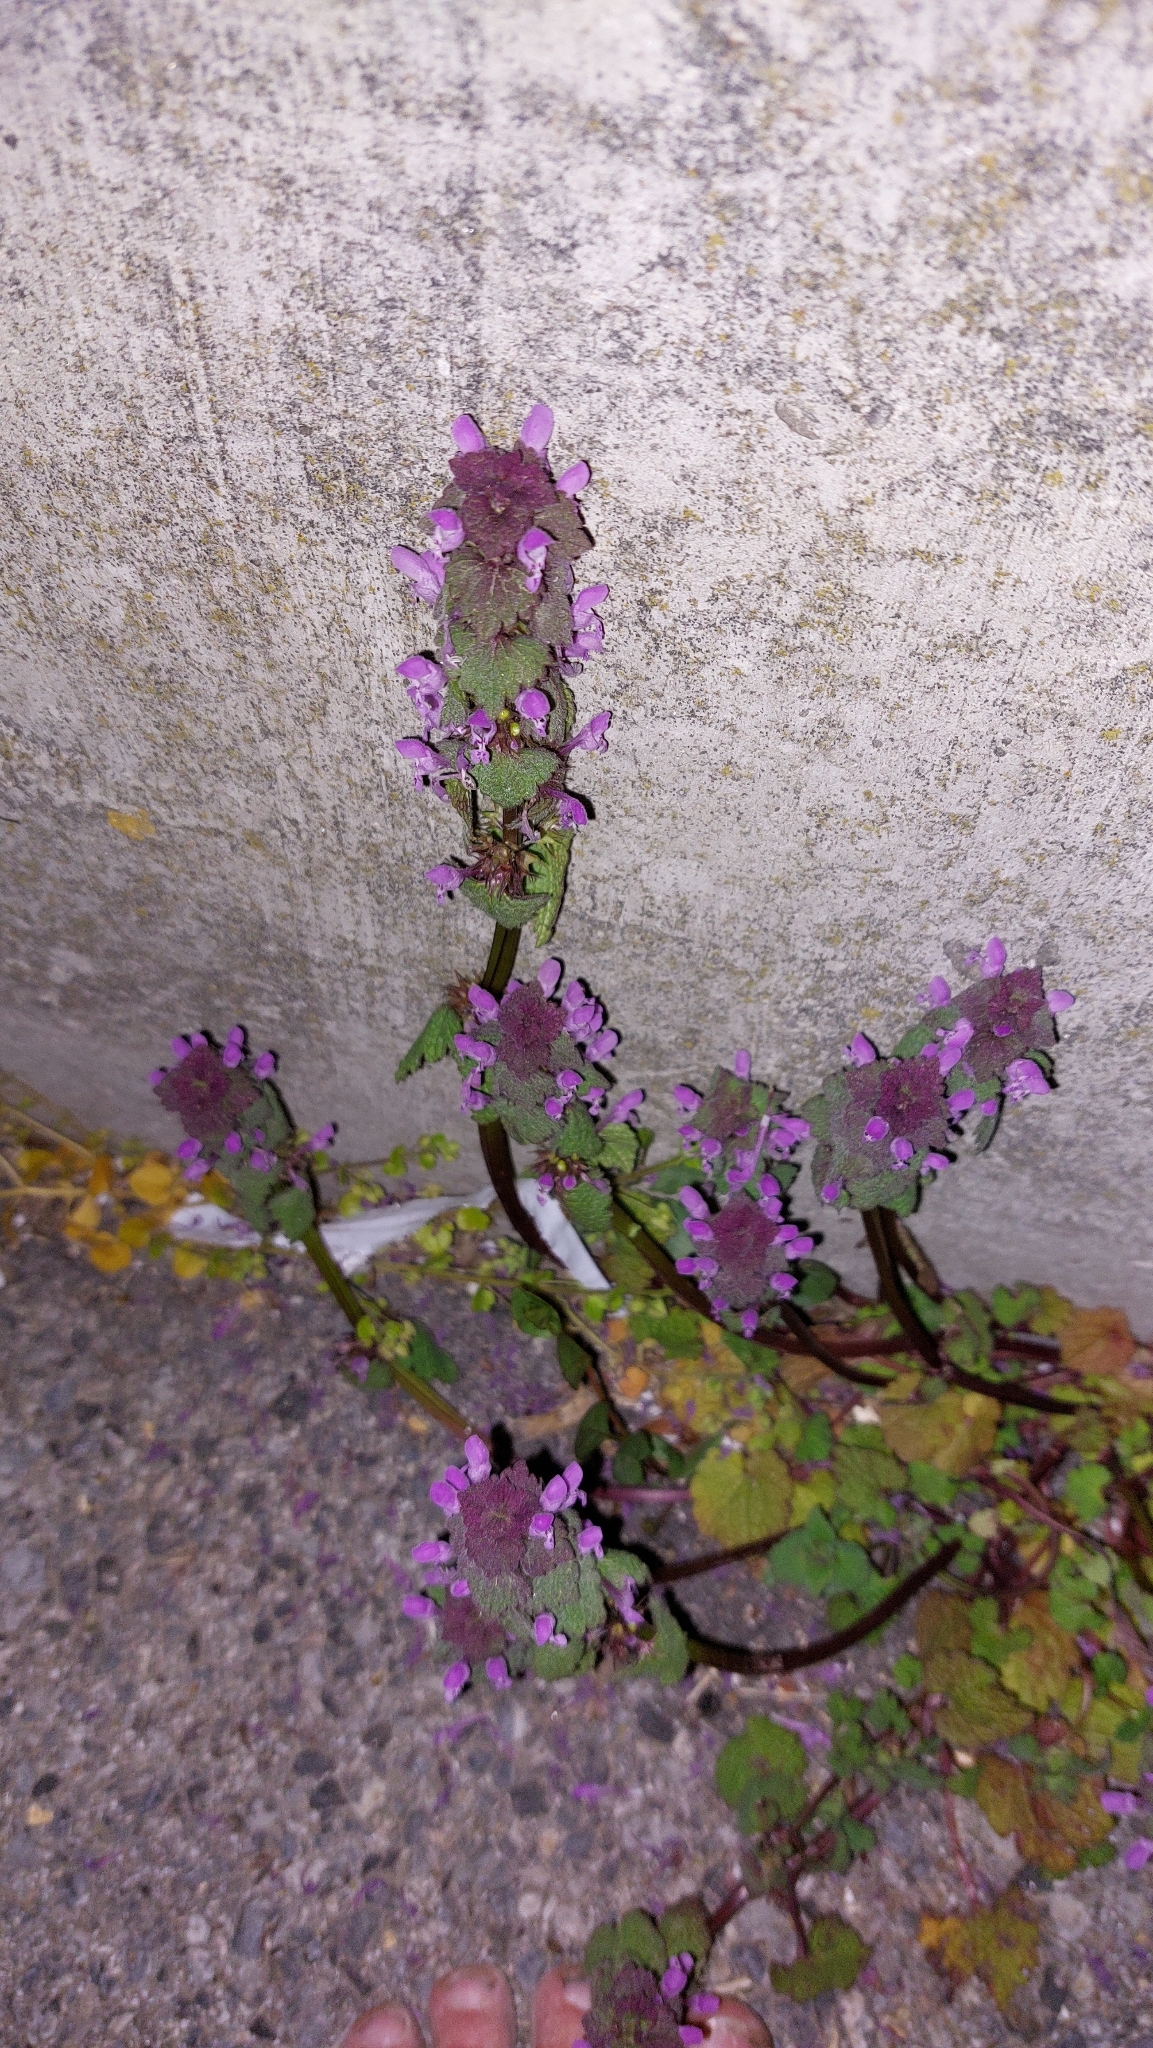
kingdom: Plantae
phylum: Tracheophyta
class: Magnoliopsida
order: Lamiales
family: Lamiaceae
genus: Lamium
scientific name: Lamium purpureum
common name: Red dead-nettle
